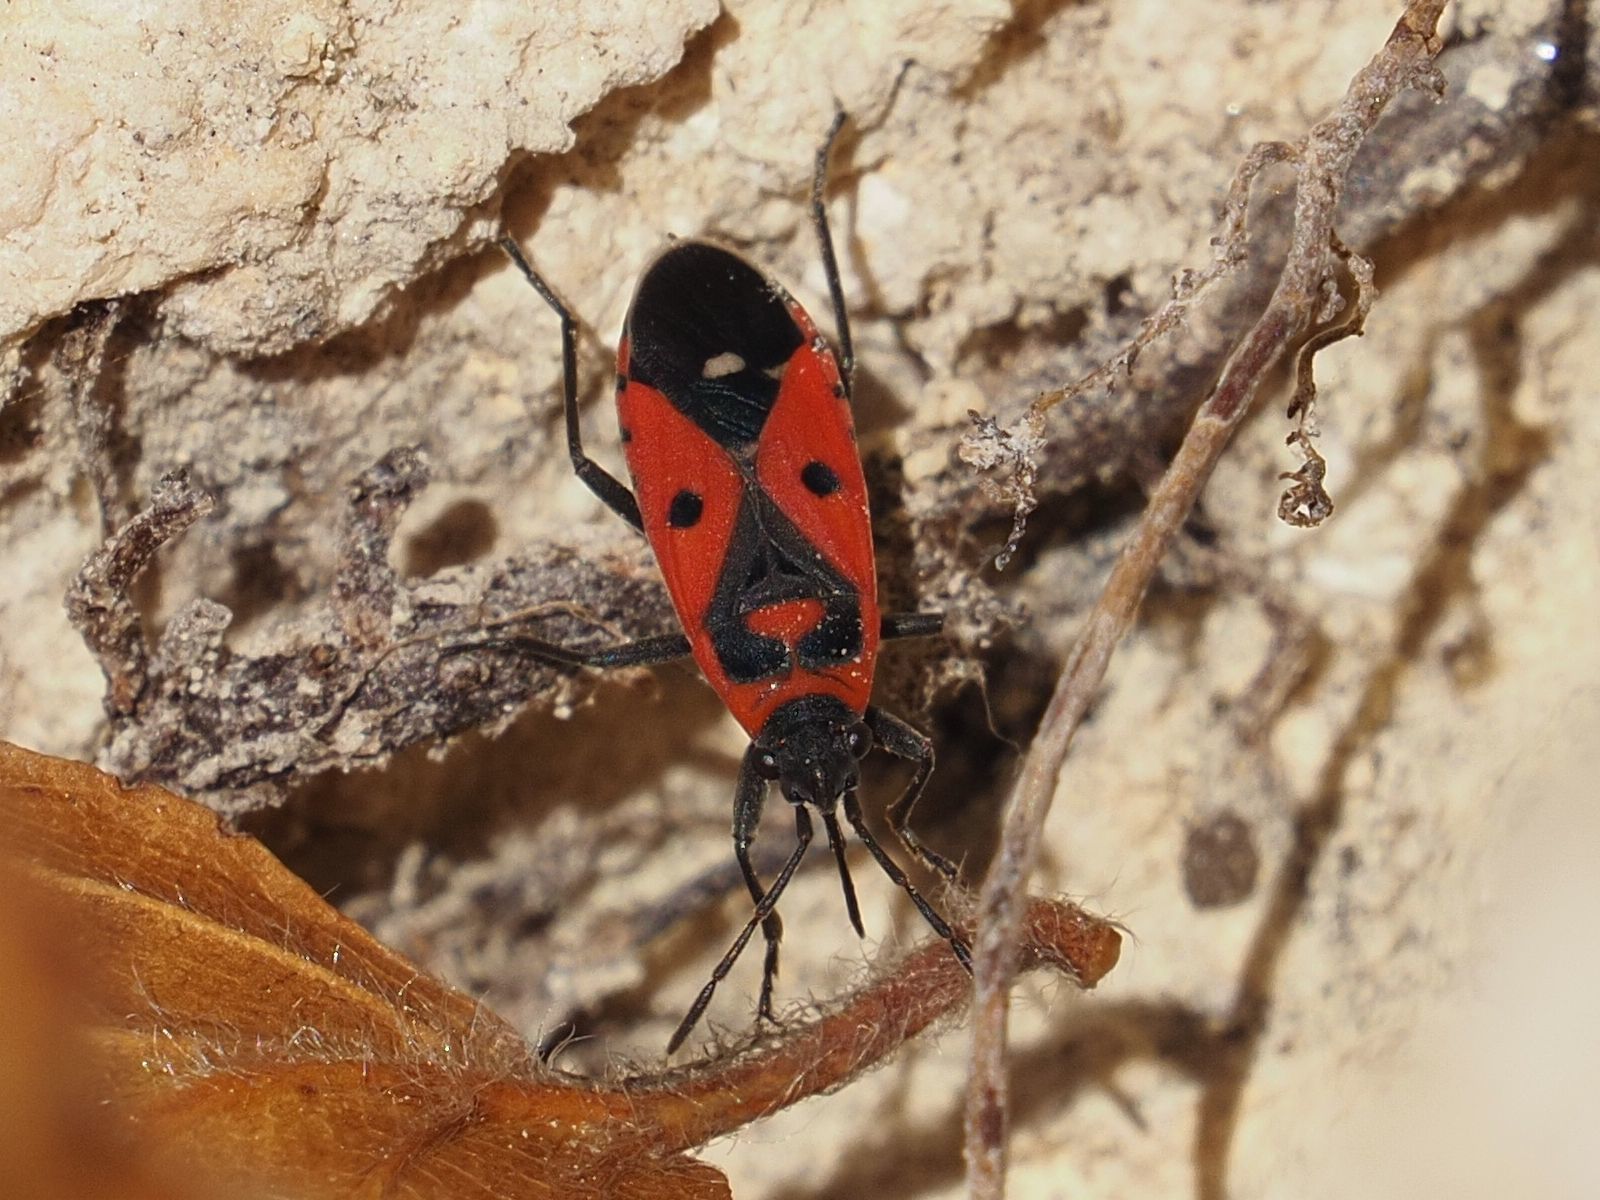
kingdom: Animalia
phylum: Arthropoda
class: Insecta
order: Hemiptera
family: Lygaeidae
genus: Melanocoryphus
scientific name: Melanocoryphus albomaculatus
